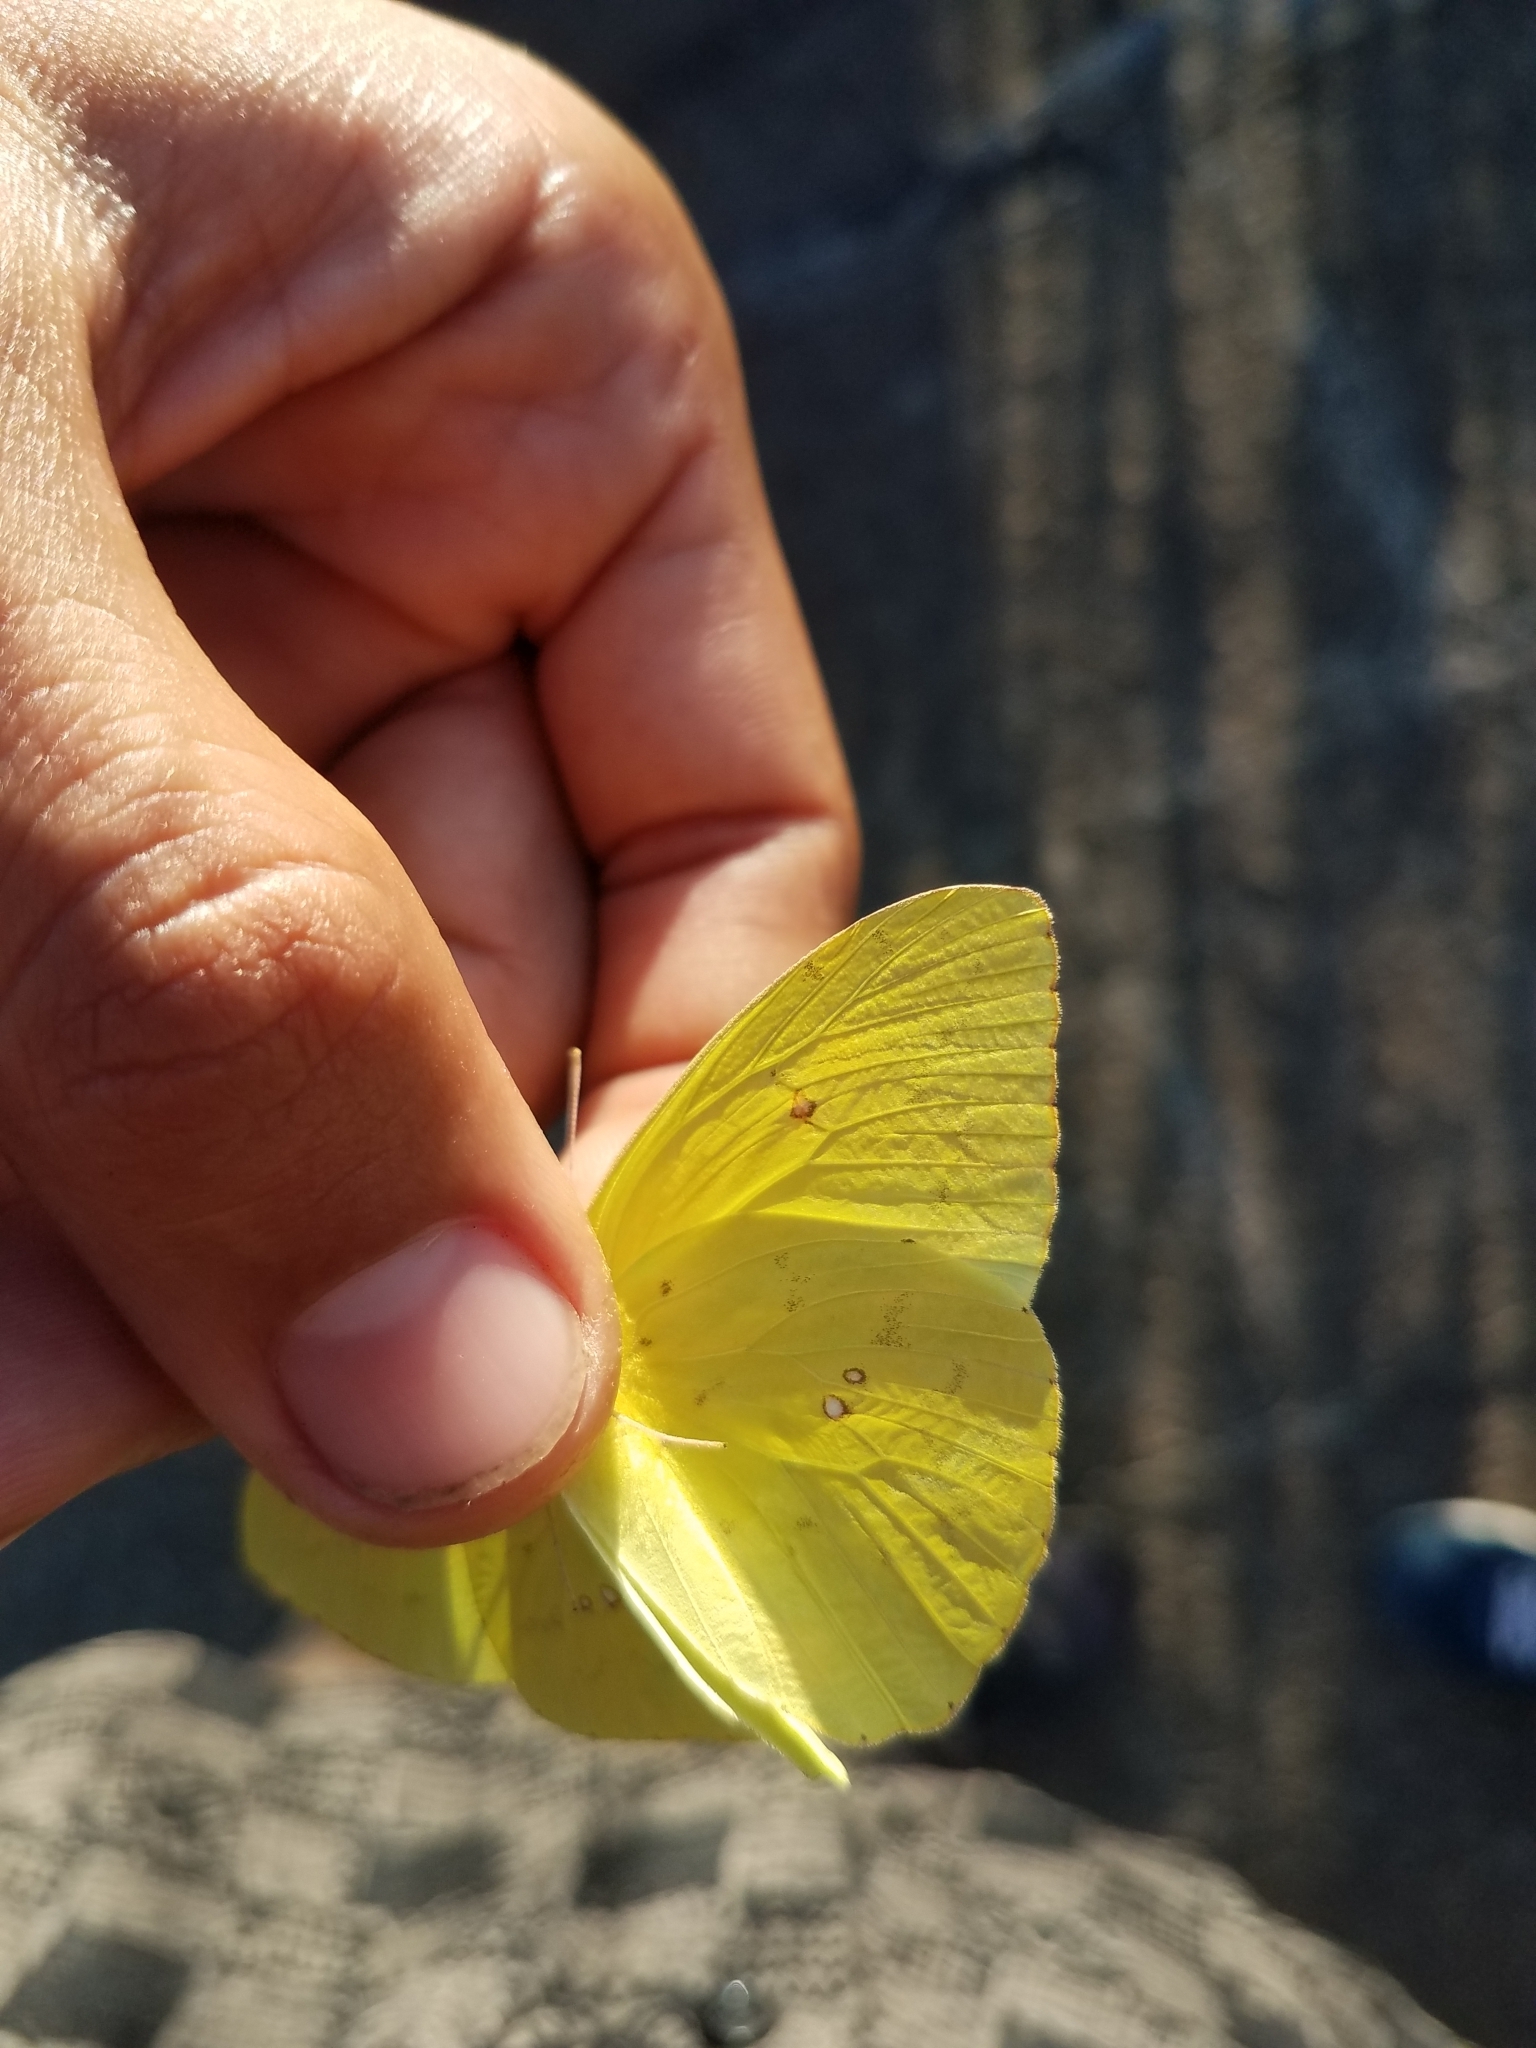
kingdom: Animalia
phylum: Arthropoda
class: Insecta
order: Lepidoptera
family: Pieridae
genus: Phoebis
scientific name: Phoebis marcellina
